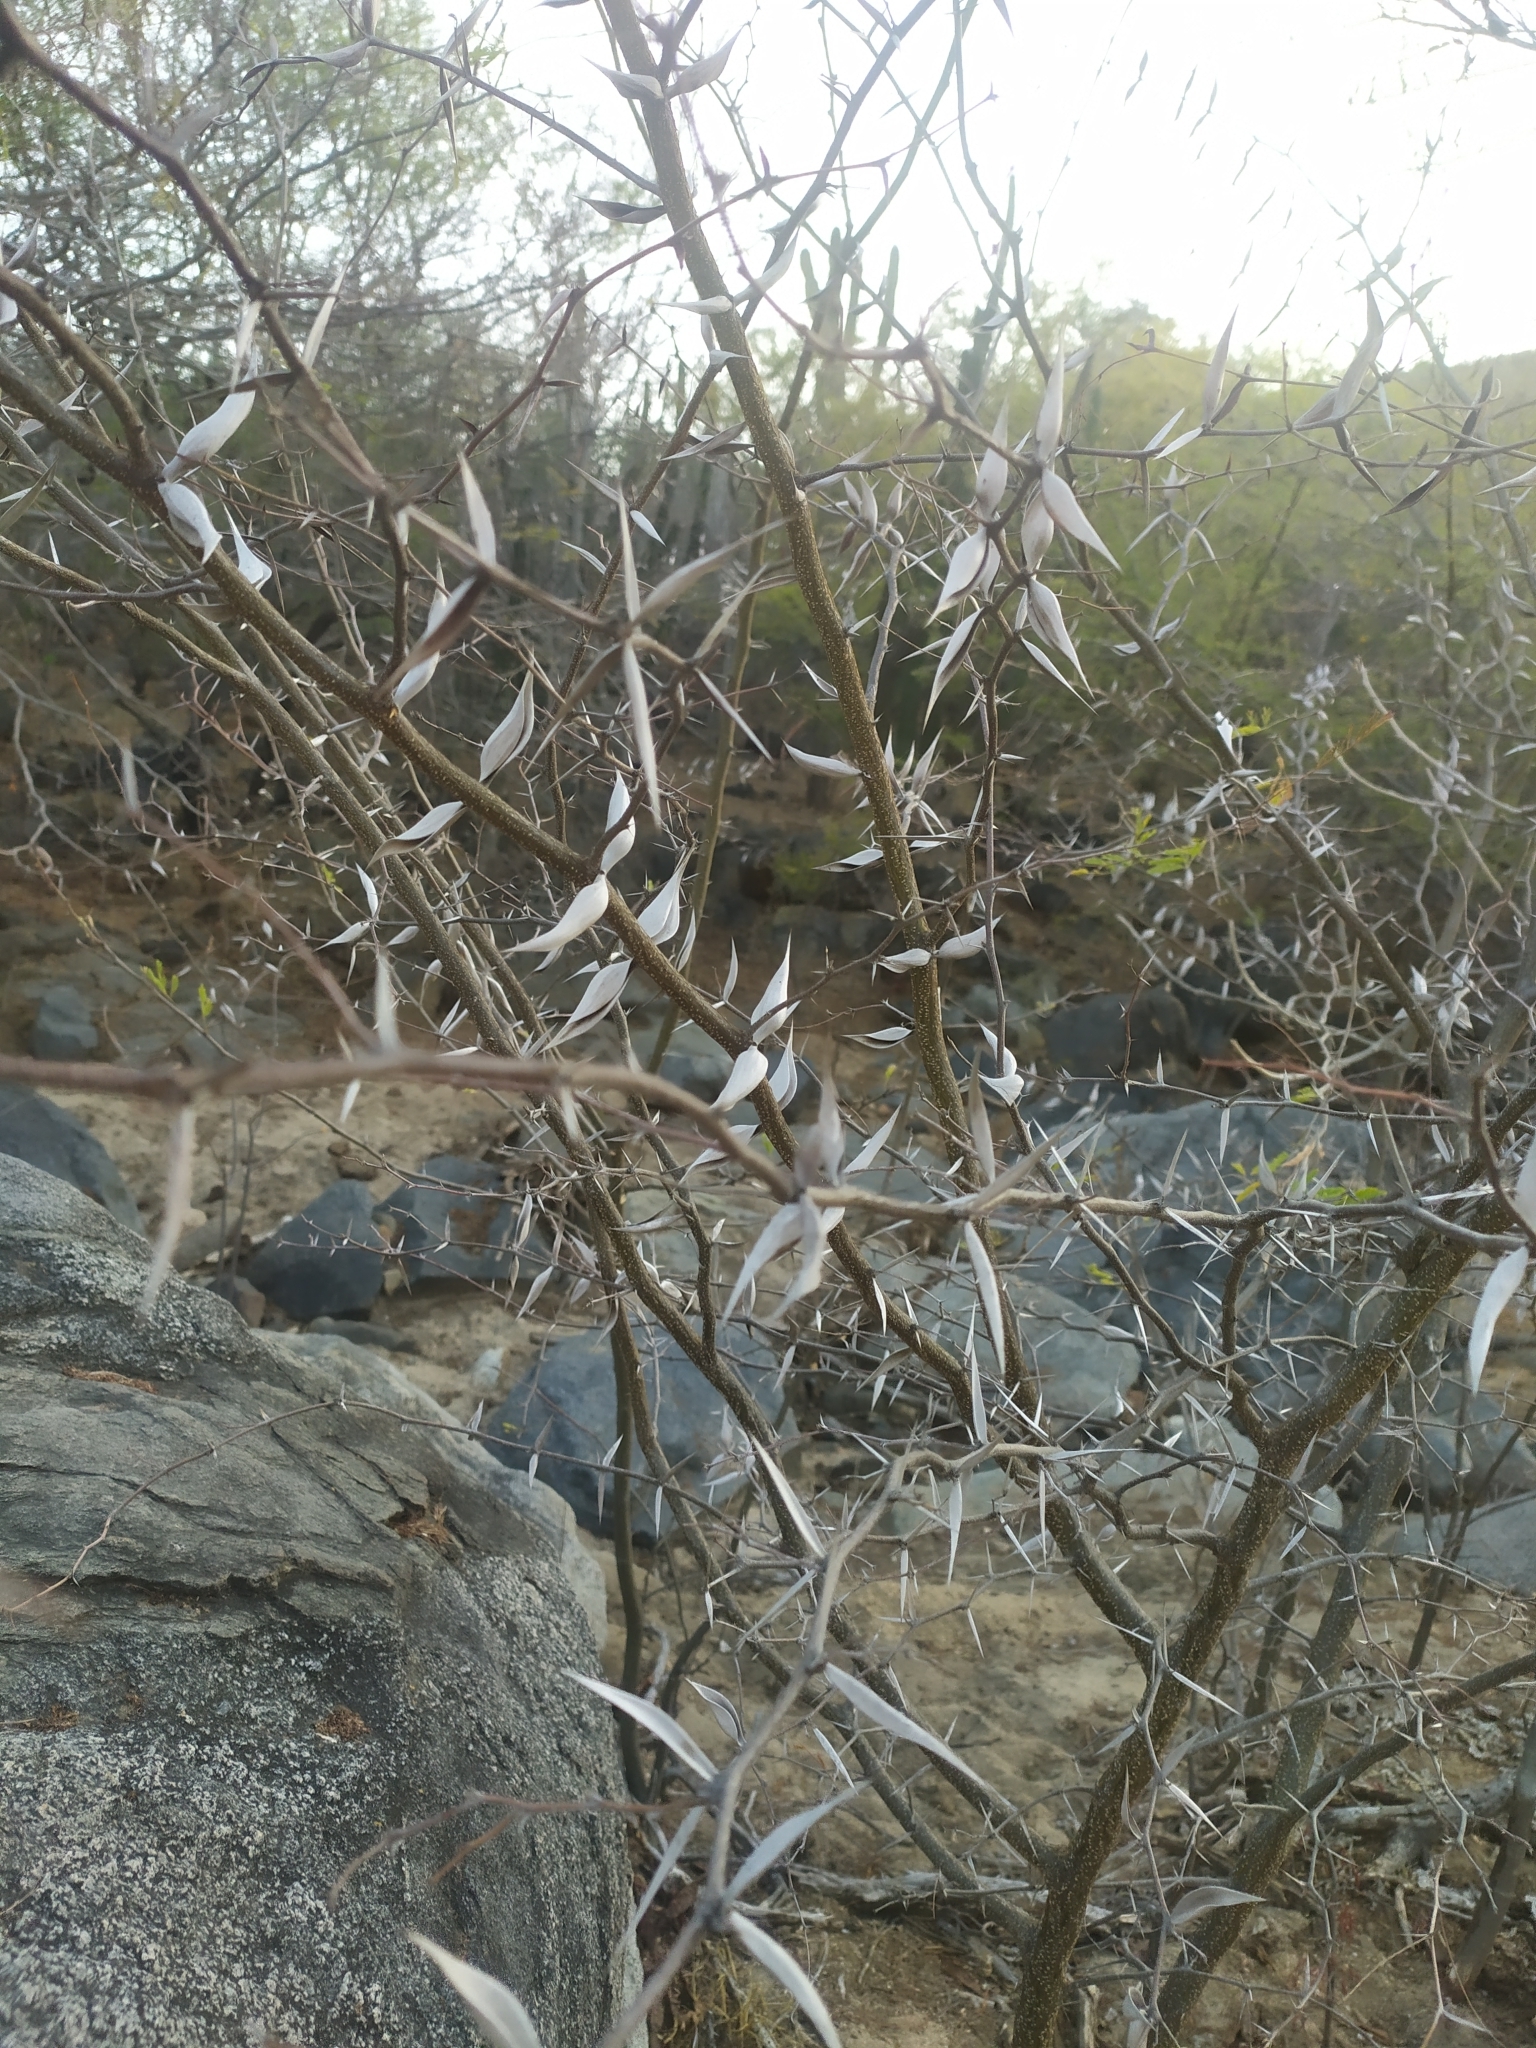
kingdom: Plantae
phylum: Tracheophyta
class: Magnoliopsida
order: Fabales
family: Fabaceae
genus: Vachellia
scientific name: Vachellia campechiana
